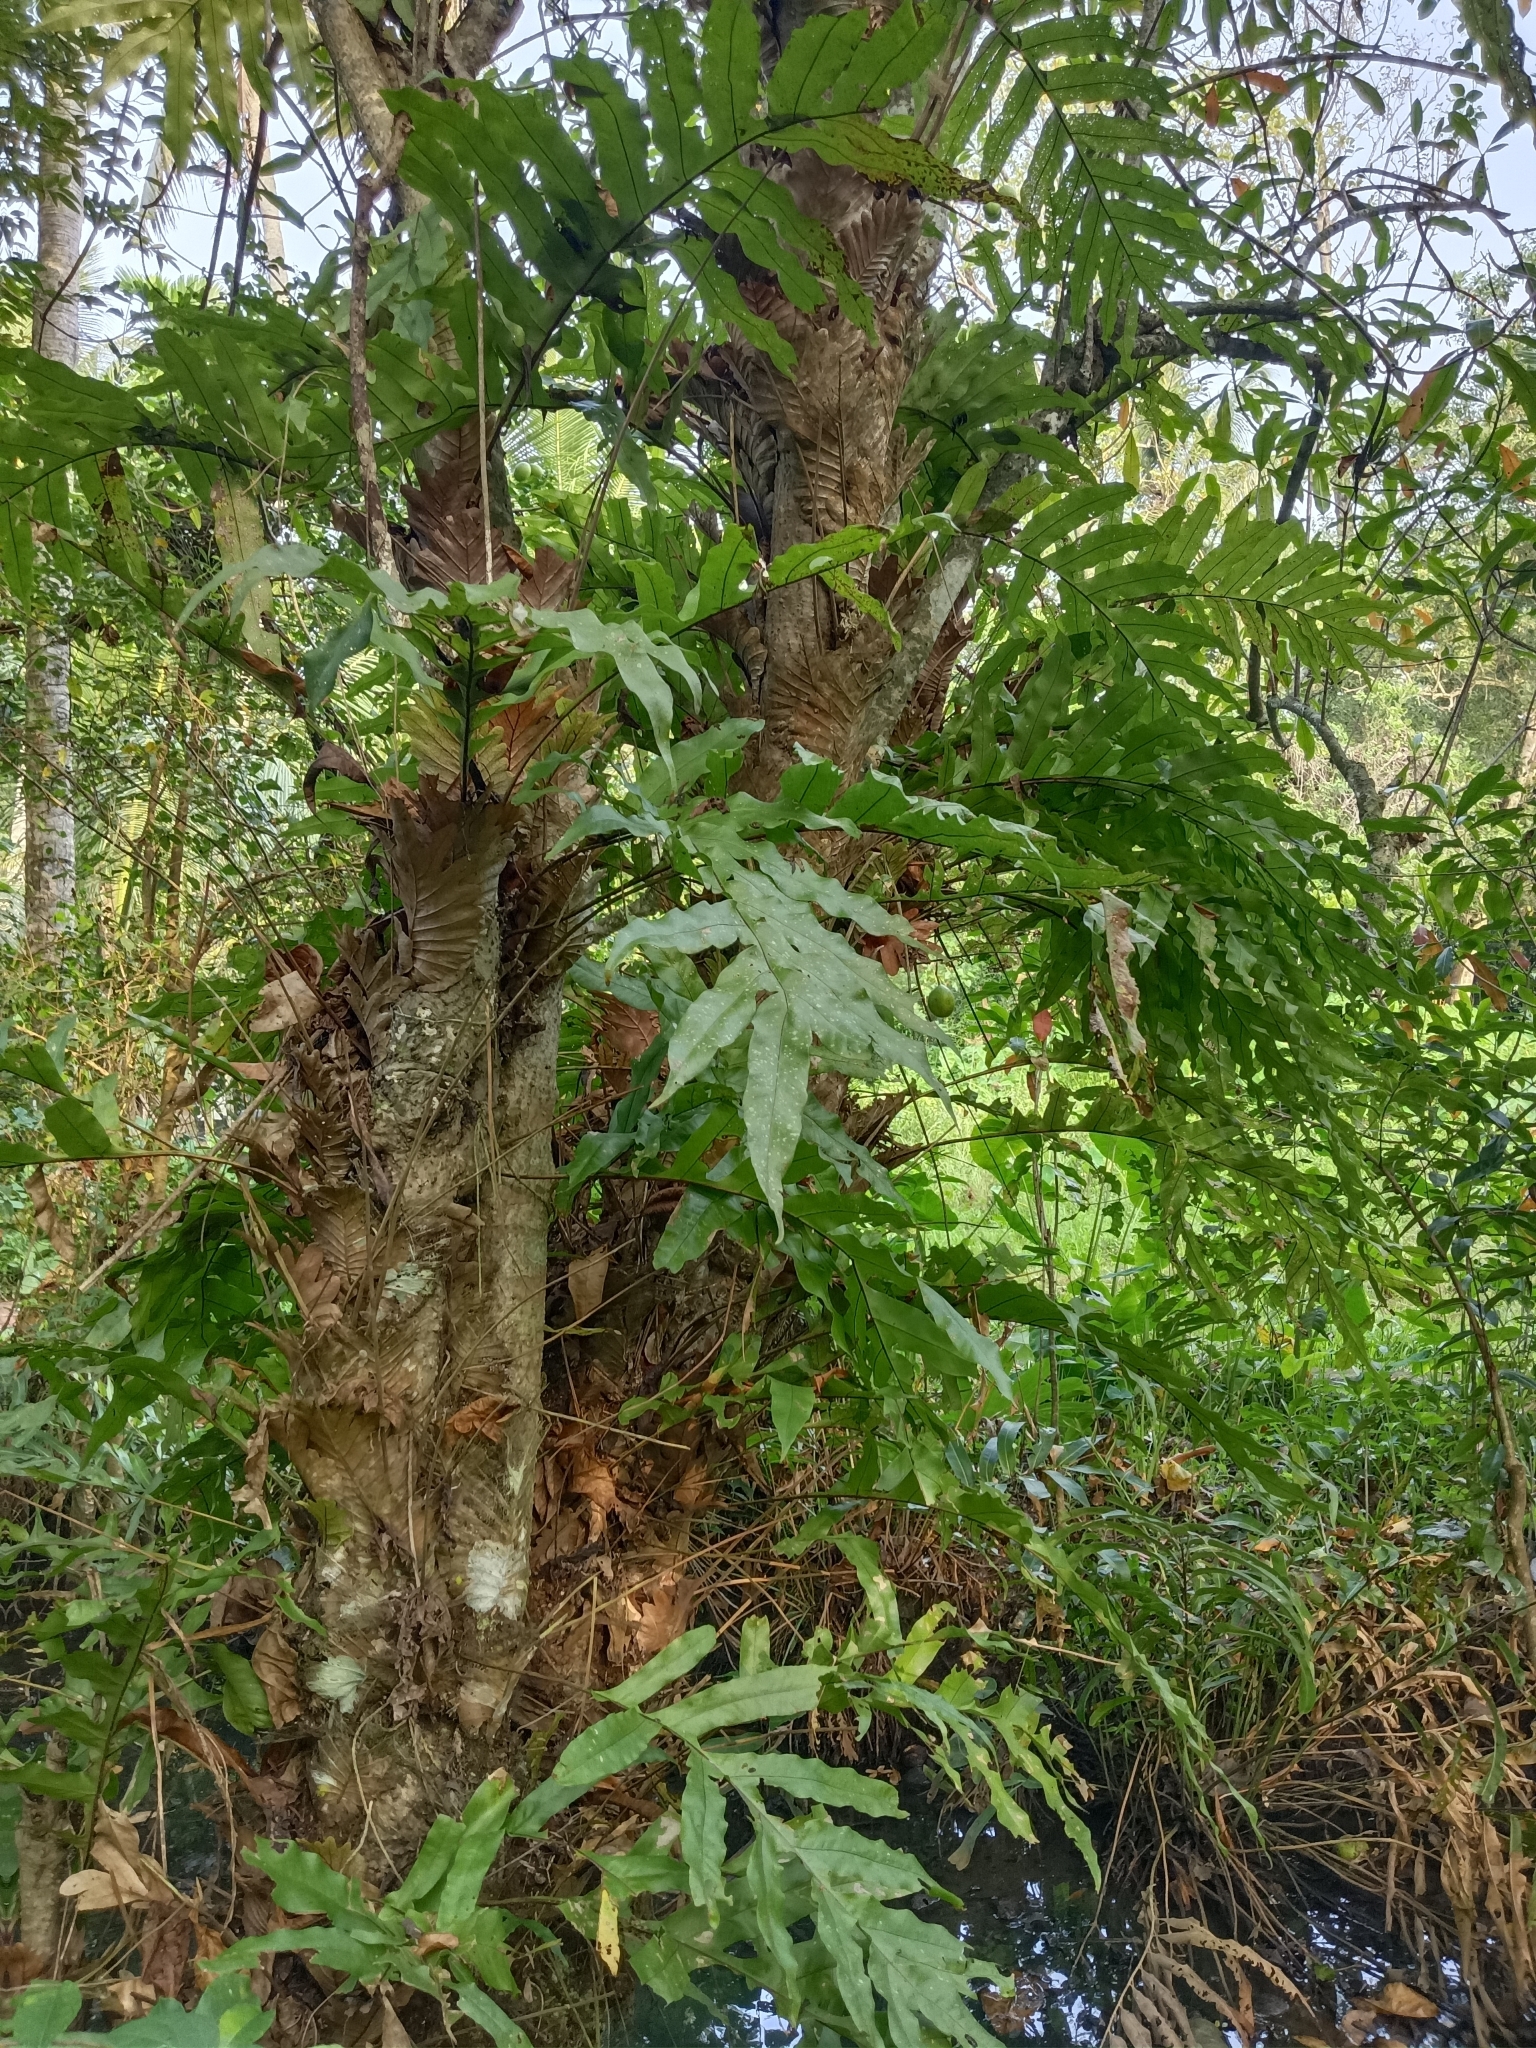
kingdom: Plantae
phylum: Tracheophyta
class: Polypodiopsida
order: Polypodiales
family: Polypodiaceae
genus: Drynaria
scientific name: Drynaria quercifolia
